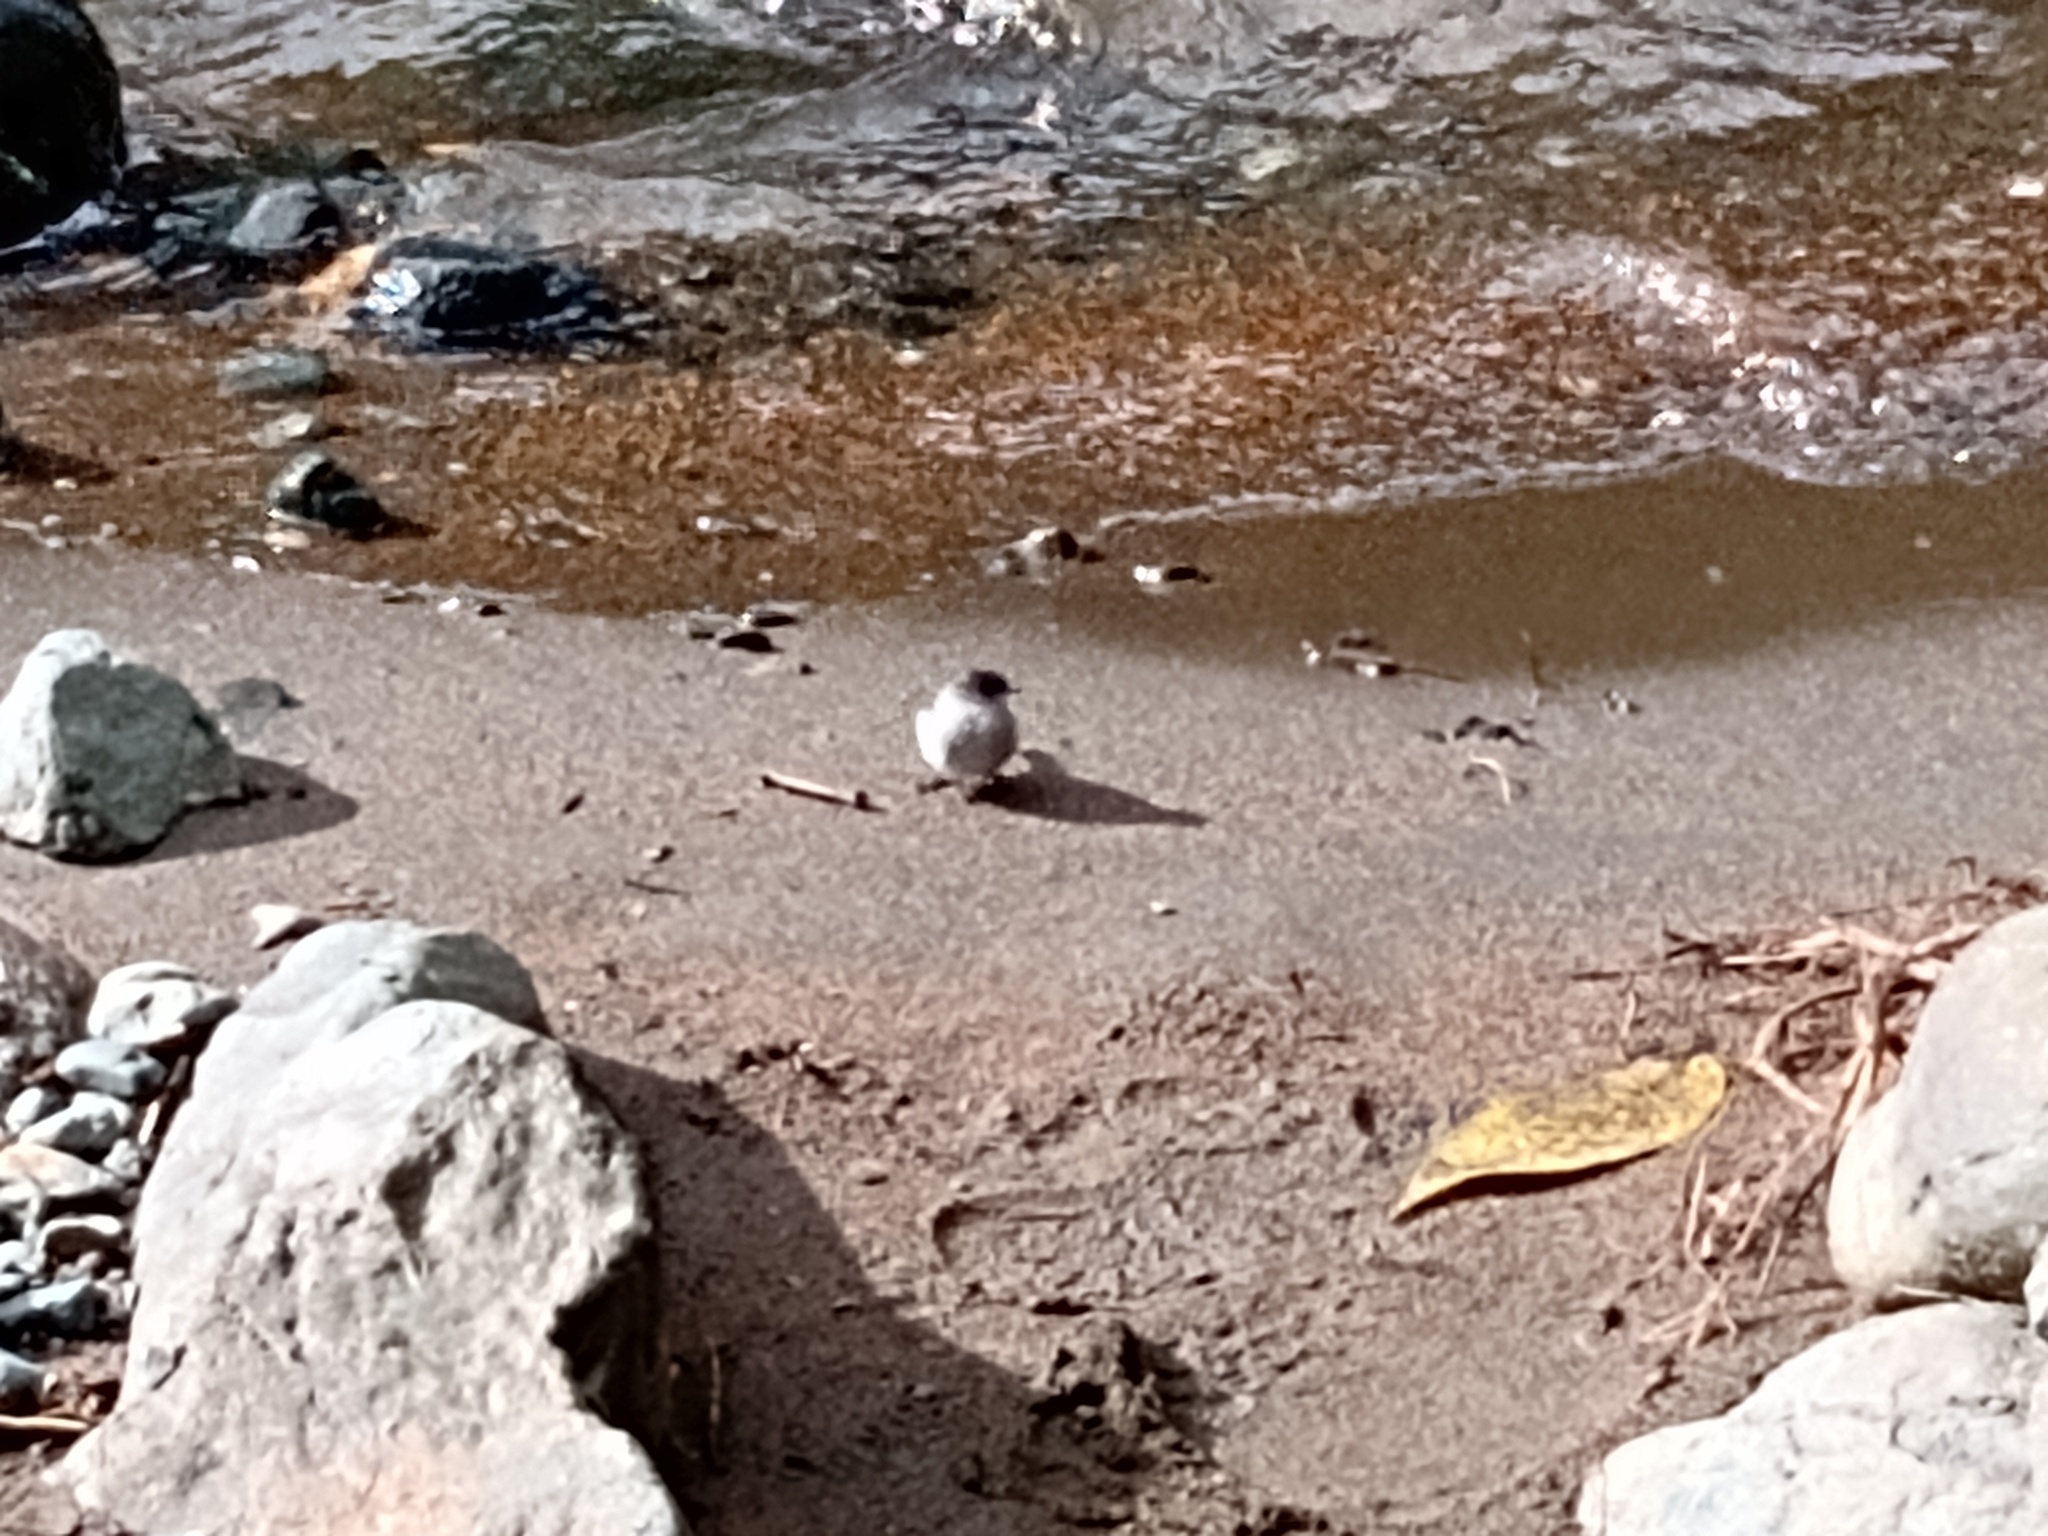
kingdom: Animalia
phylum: Chordata
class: Aves
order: Passeriformes
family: Tyrannidae
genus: Serpophaga
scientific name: Serpophaga cinerea
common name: Torrent tyrannulet
